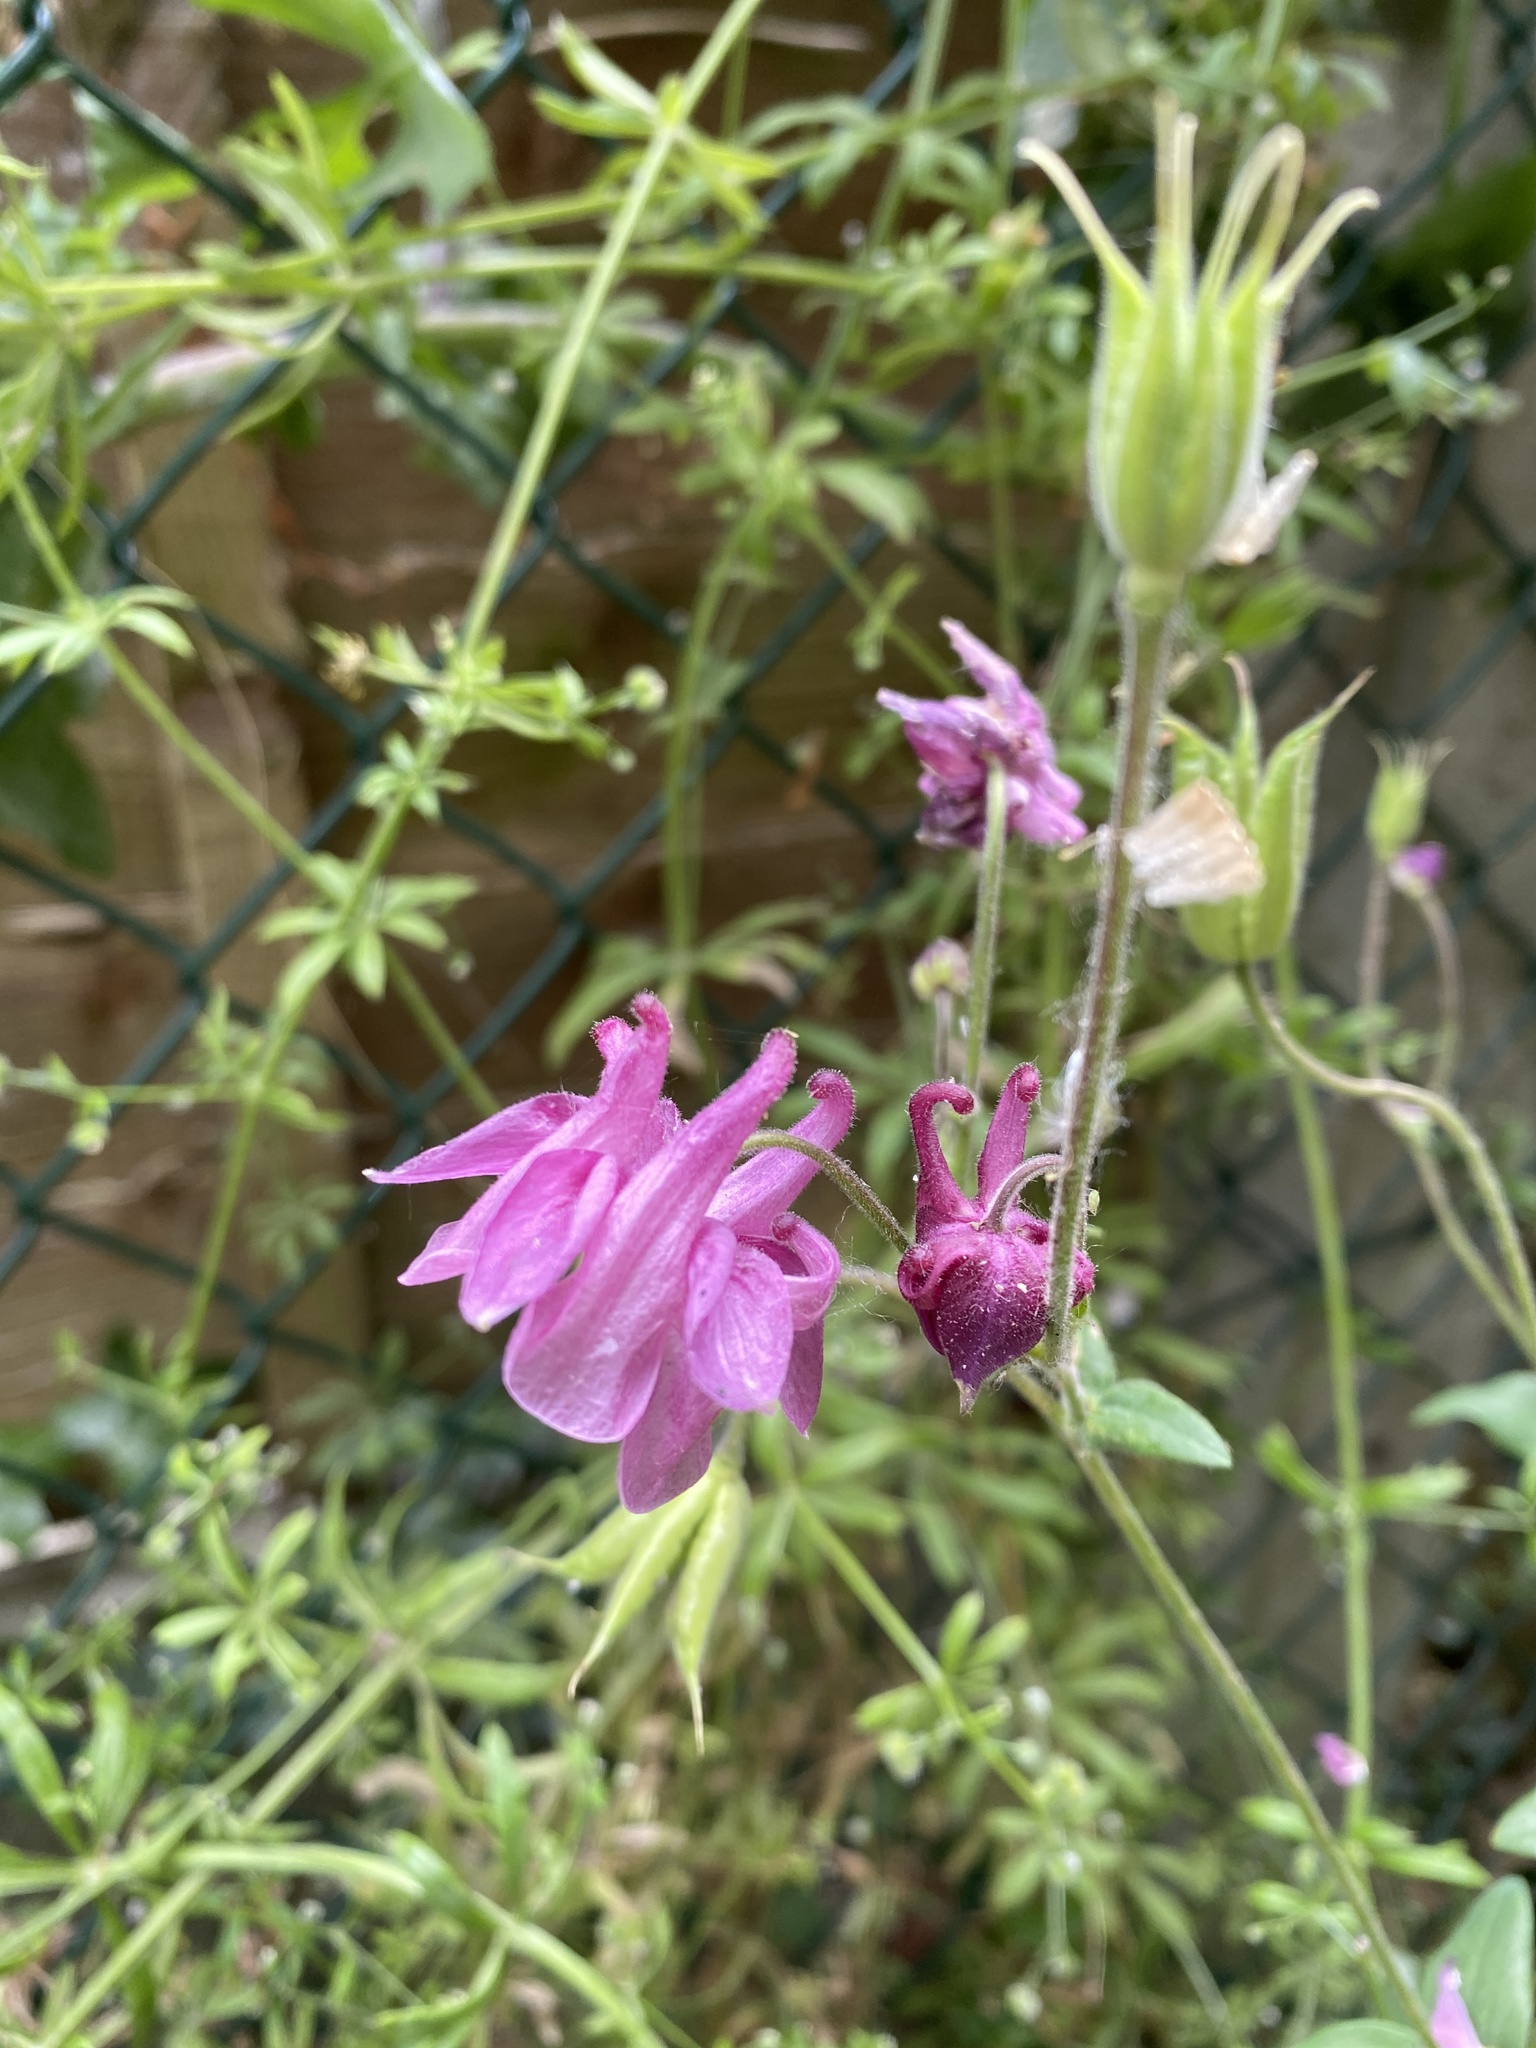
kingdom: Plantae
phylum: Tracheophyta
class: Magnoliopsida
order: Ranunculales
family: Ranunculaceae
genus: Aquilegia
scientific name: Aquilegia vulgaris
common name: Columbine
